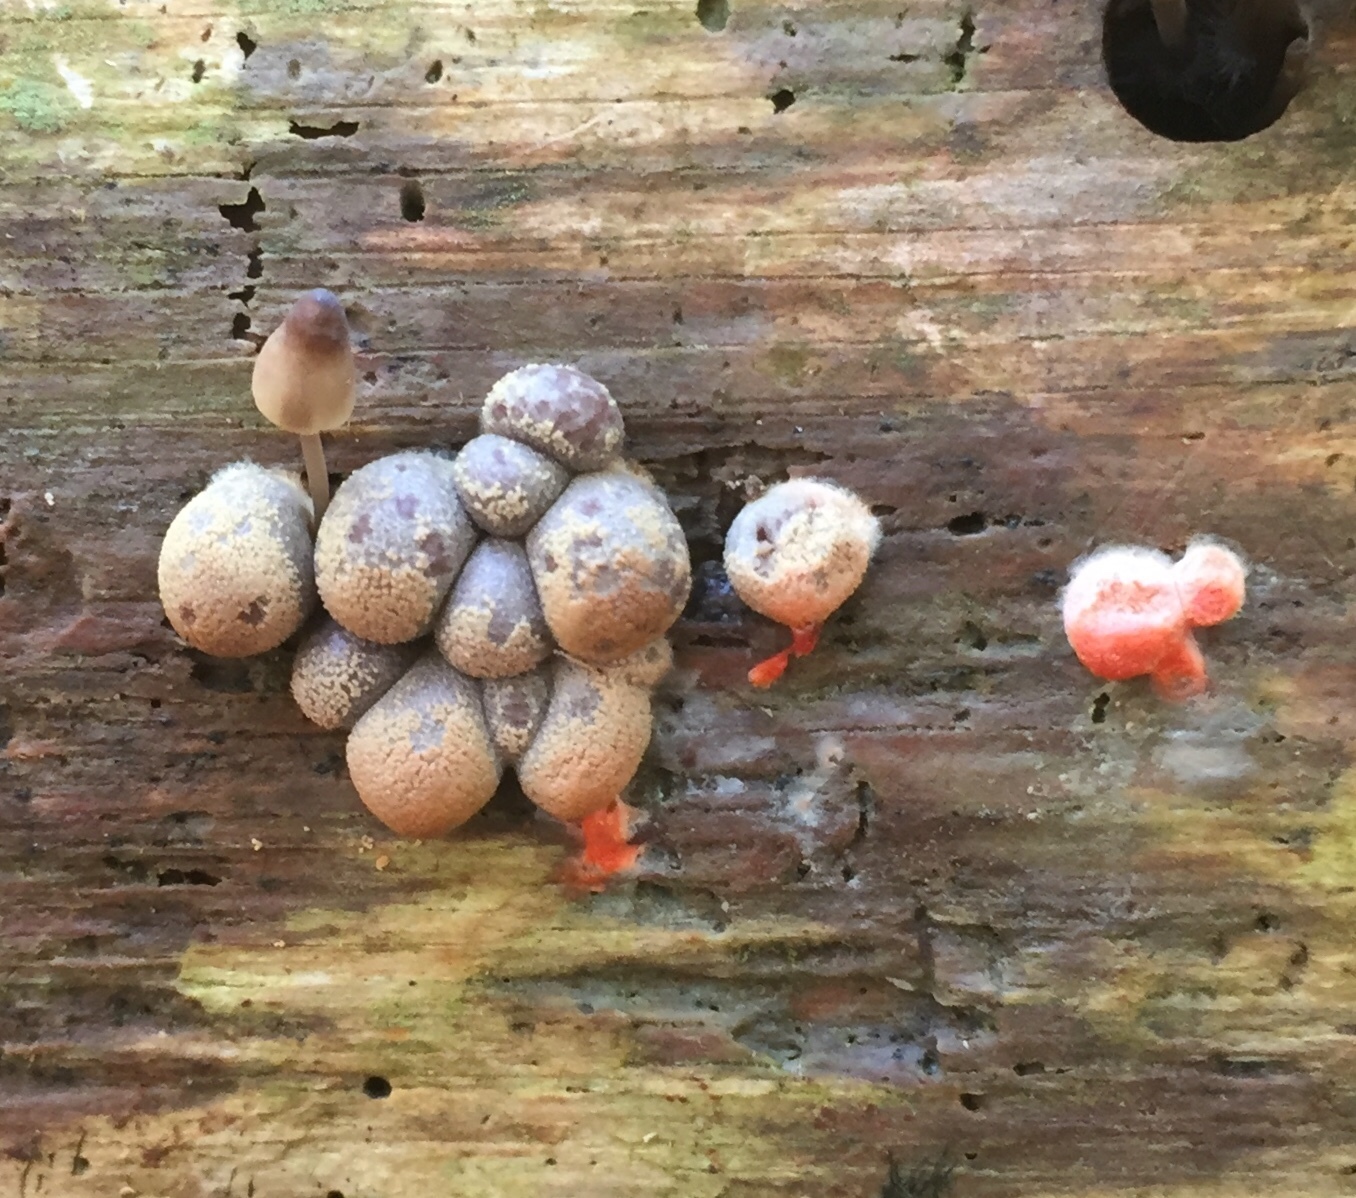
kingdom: Protozoa
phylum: Mycetozoa
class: Myxomycetes
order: Cribrariales
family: Tubiferaceae
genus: Lycogala
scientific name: Lycogala epidendrum
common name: Wolf's milk
